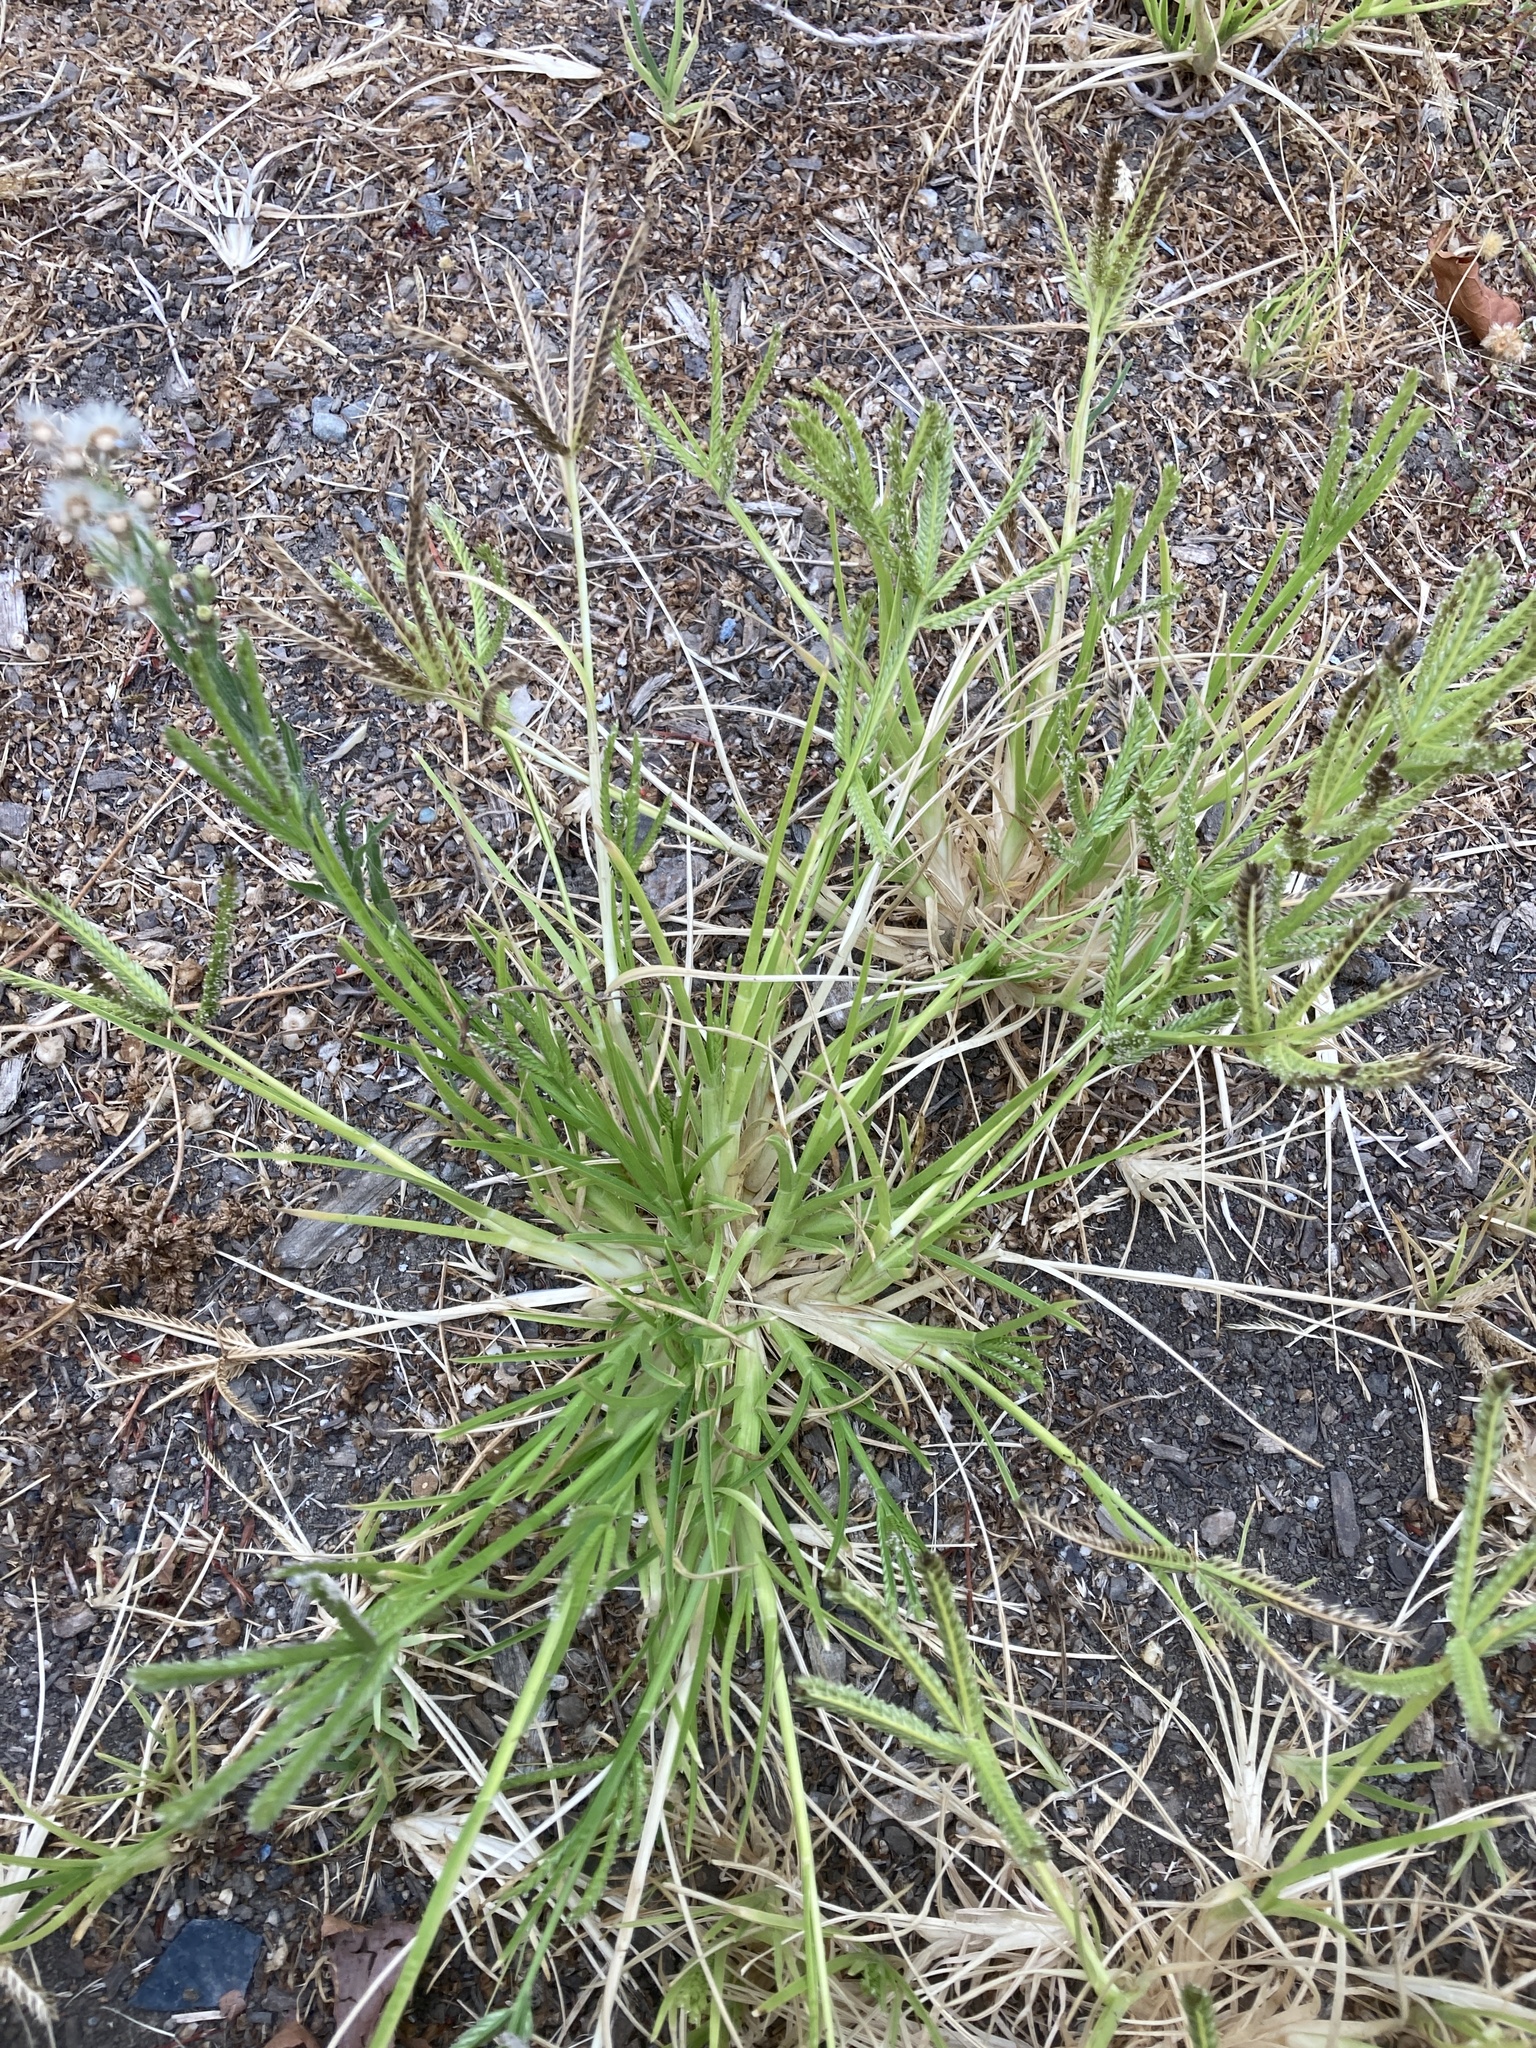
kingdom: Plantae
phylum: Tracheophyta
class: Liliopsida
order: Poales
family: Poaceae
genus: Eleusine
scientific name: Eleusine indica
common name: Yard-grass
